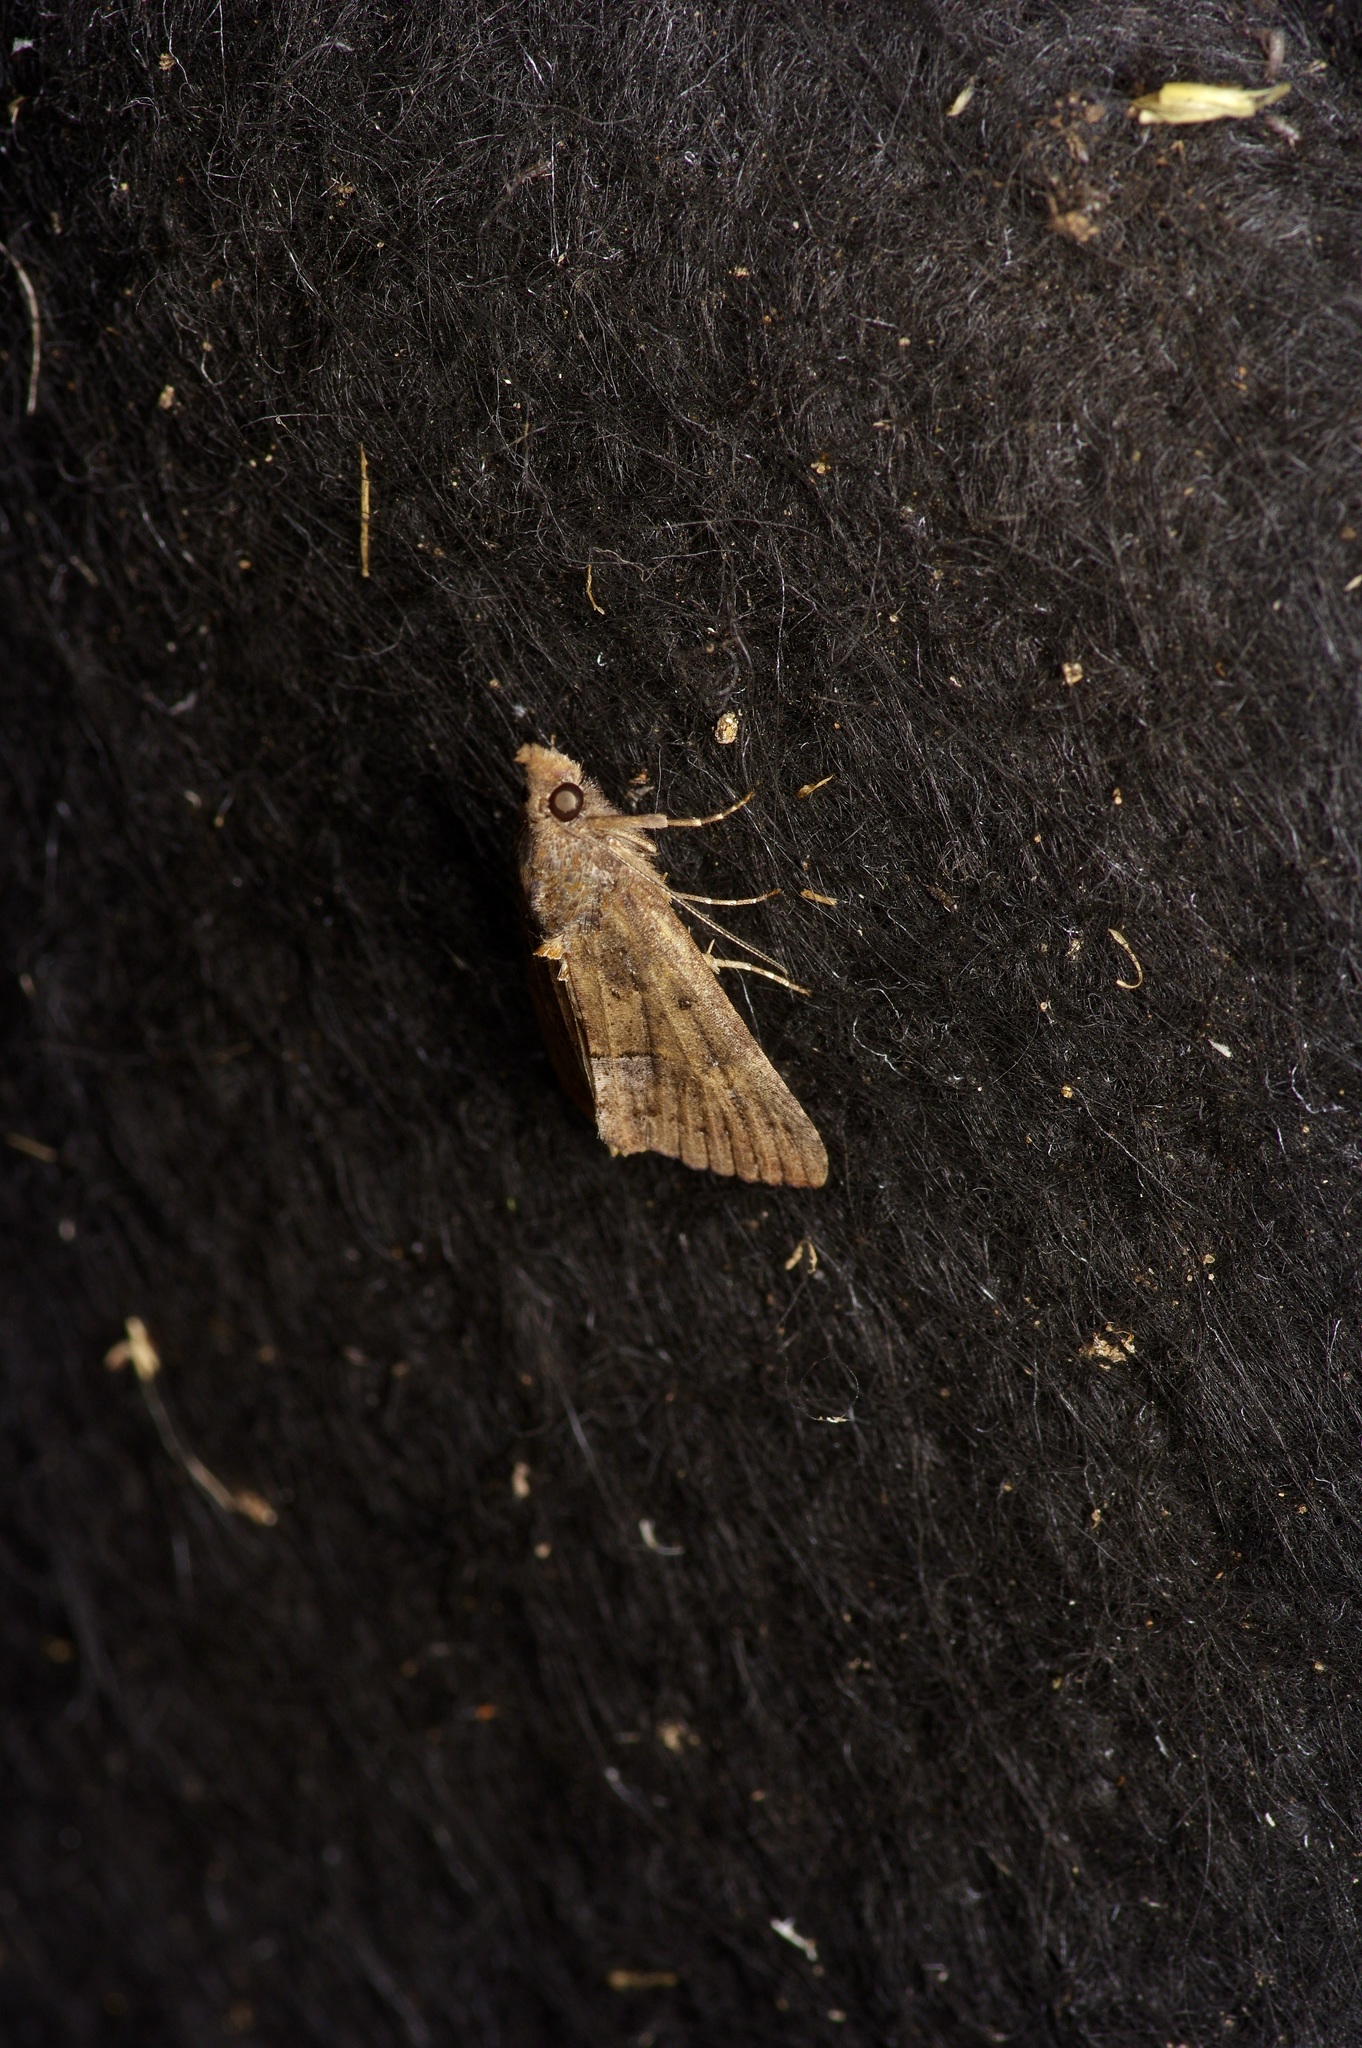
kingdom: Animalia
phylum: Arthropoda
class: Insecta
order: Lepidoptera
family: Erebidae
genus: Hypena
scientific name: Hypena scabra
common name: Green cloverworm
